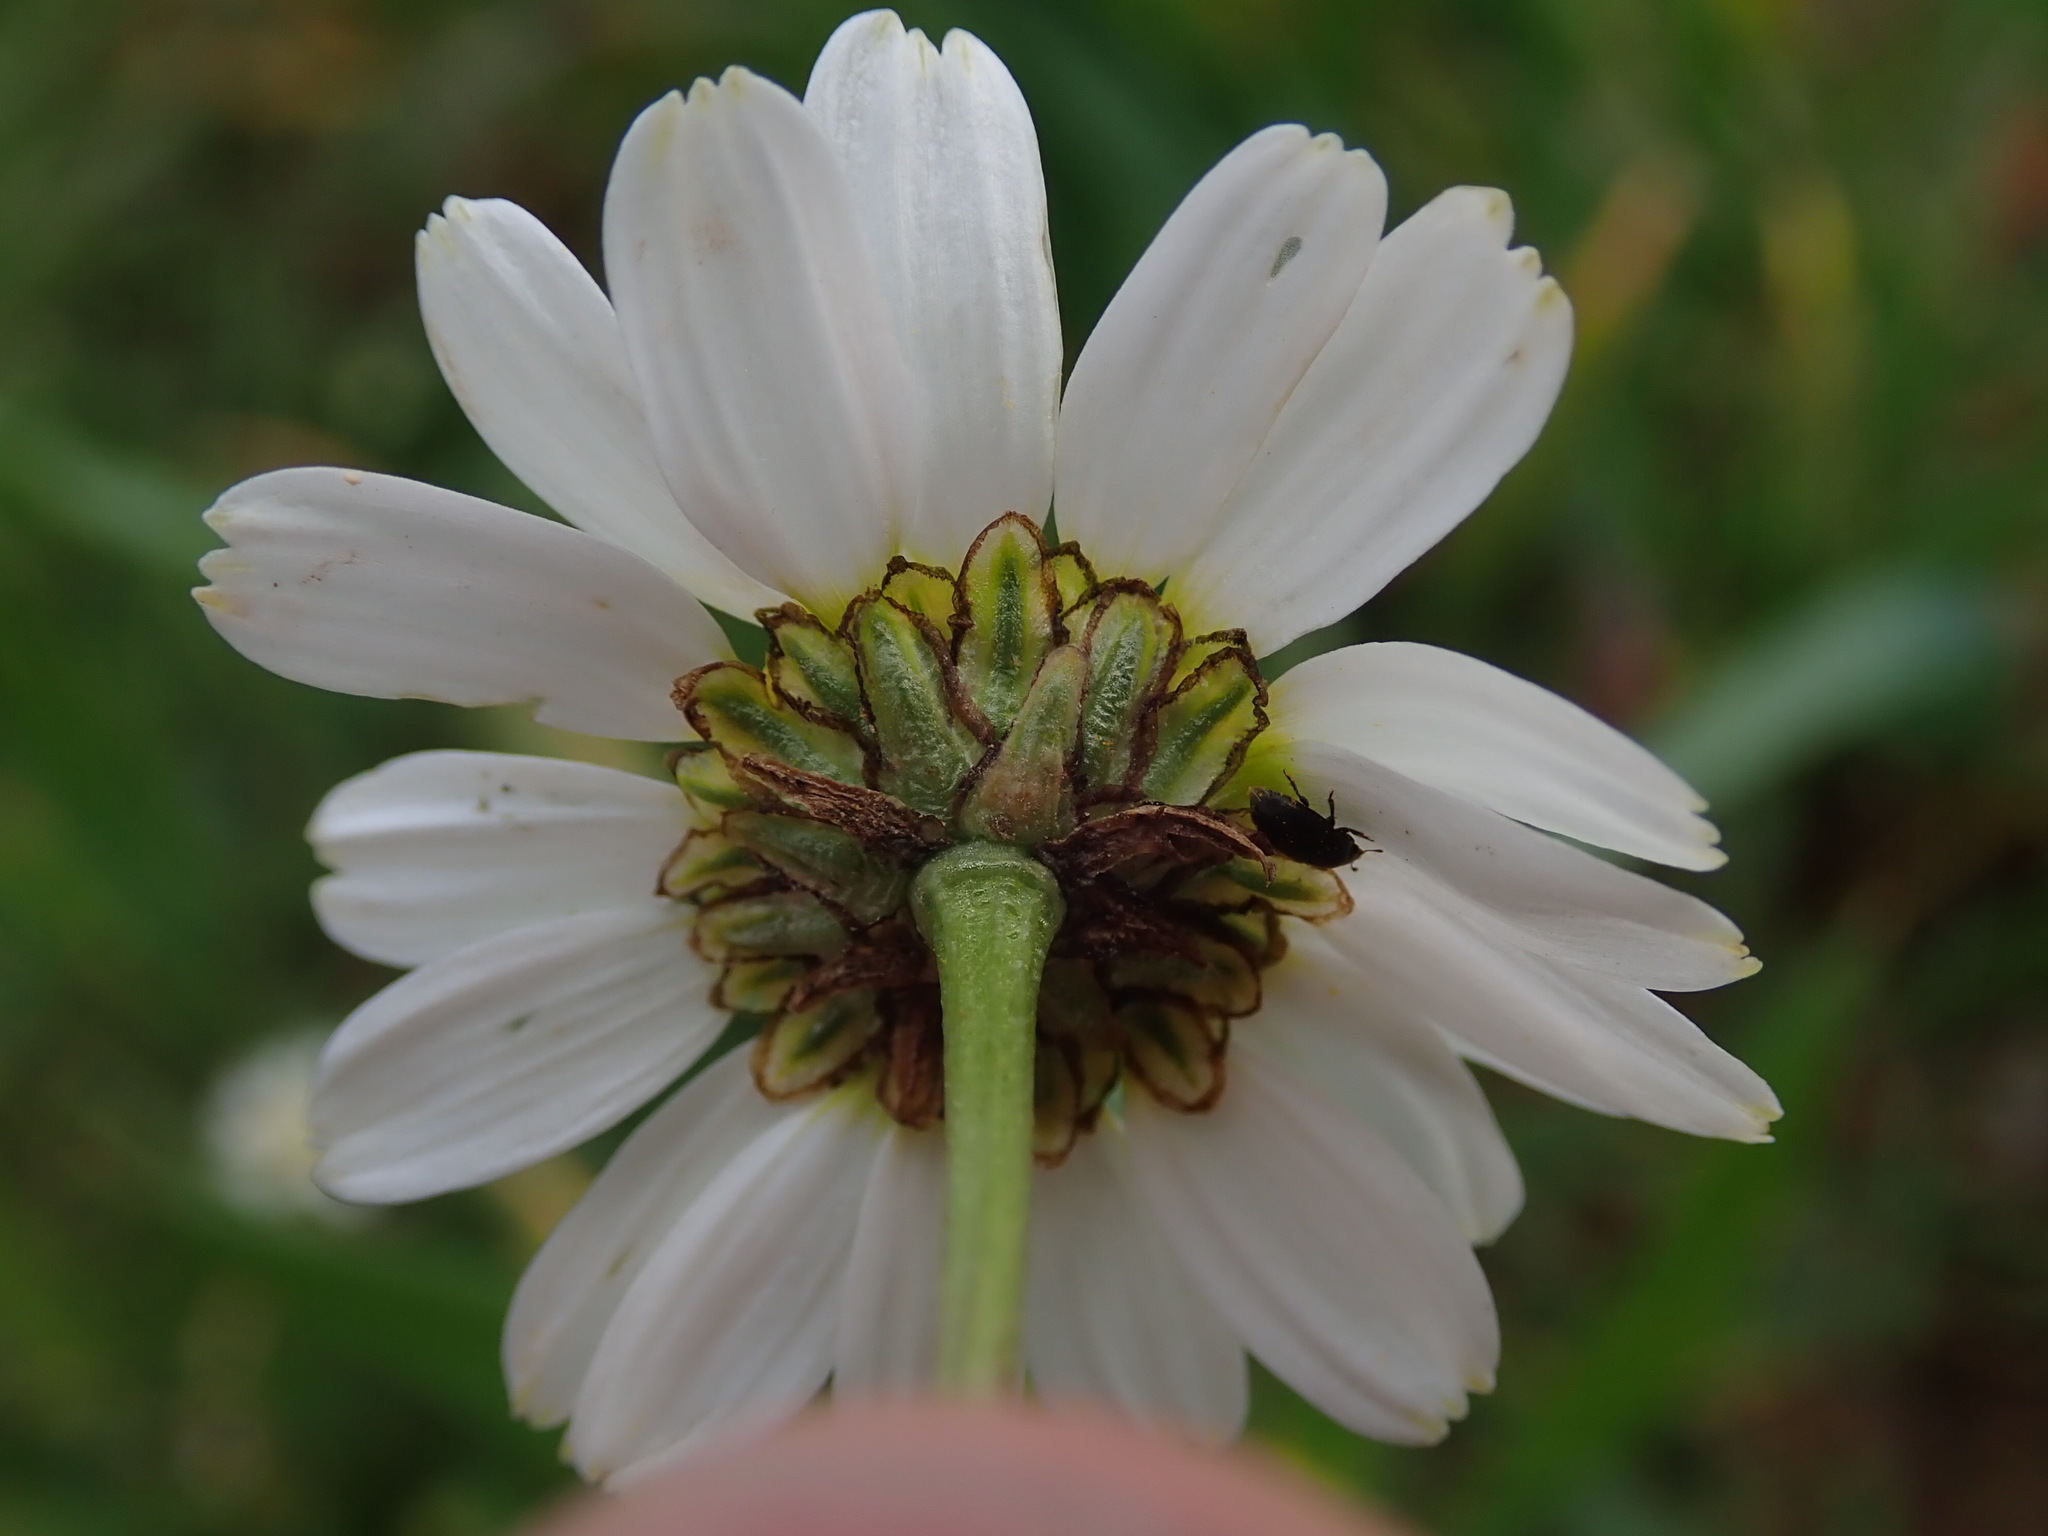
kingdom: Plantae
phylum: Tracheophyta
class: Magnoliopsida
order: Asterales
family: Asteraceae
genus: Tripleurospermum
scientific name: Tripleurospermum inodorum
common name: Scentless mayweed
